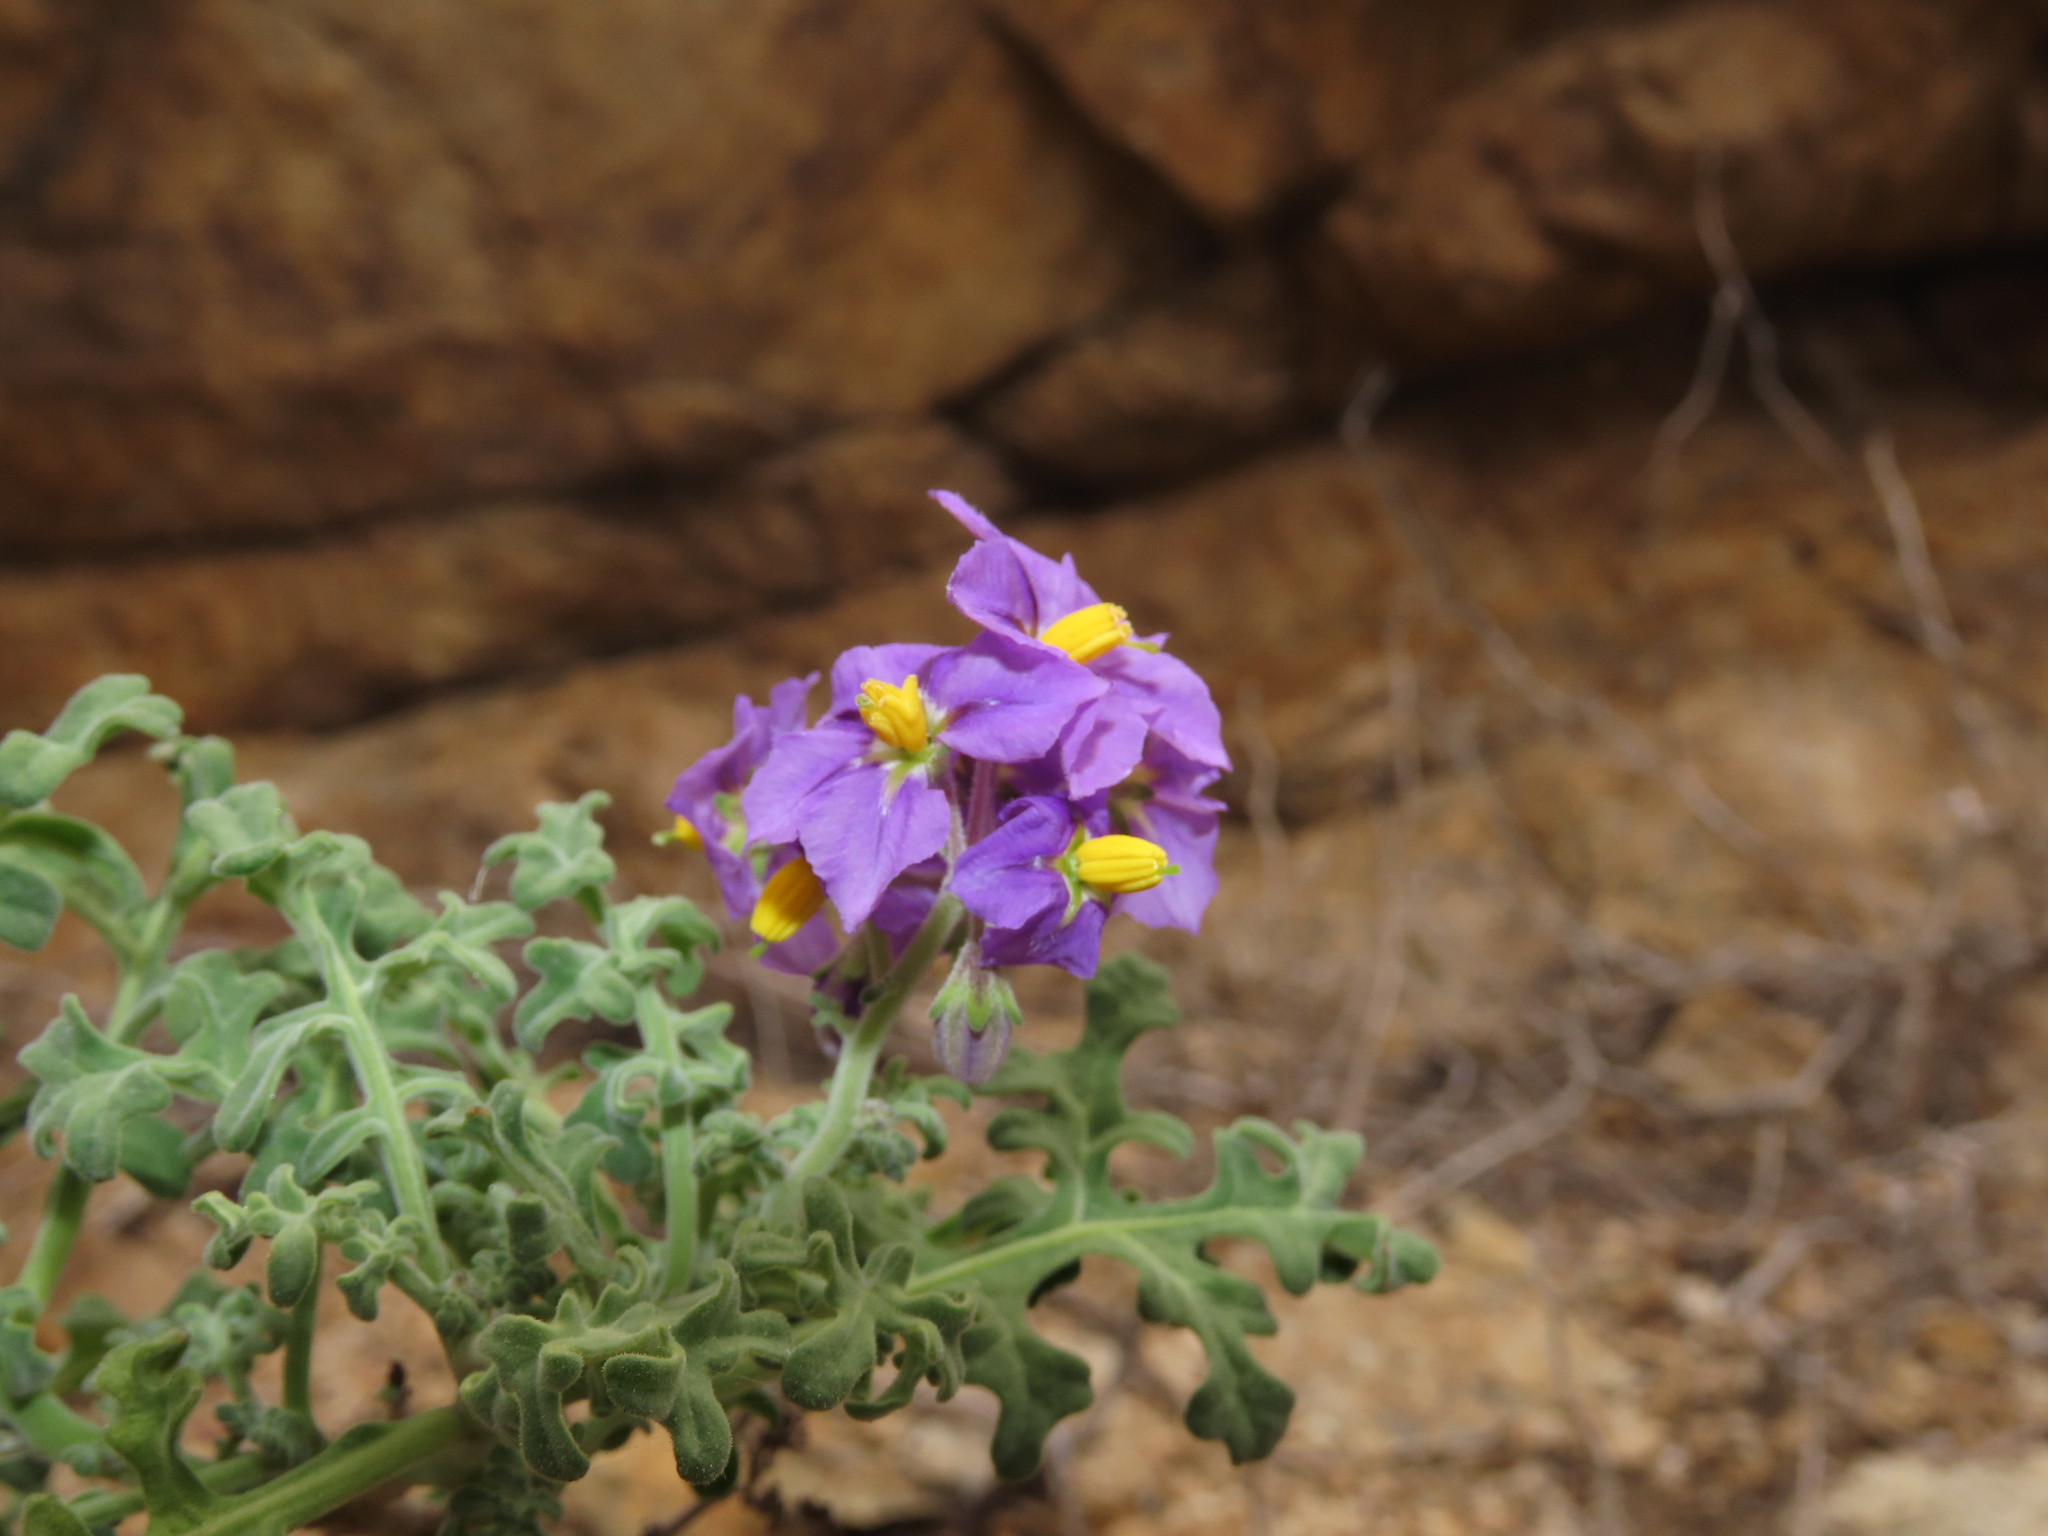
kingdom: Plantae
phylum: Tracheophyta
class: Magnoliopsida
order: Solanales
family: Solanaceae
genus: Solanum
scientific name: Solanum remyanum
